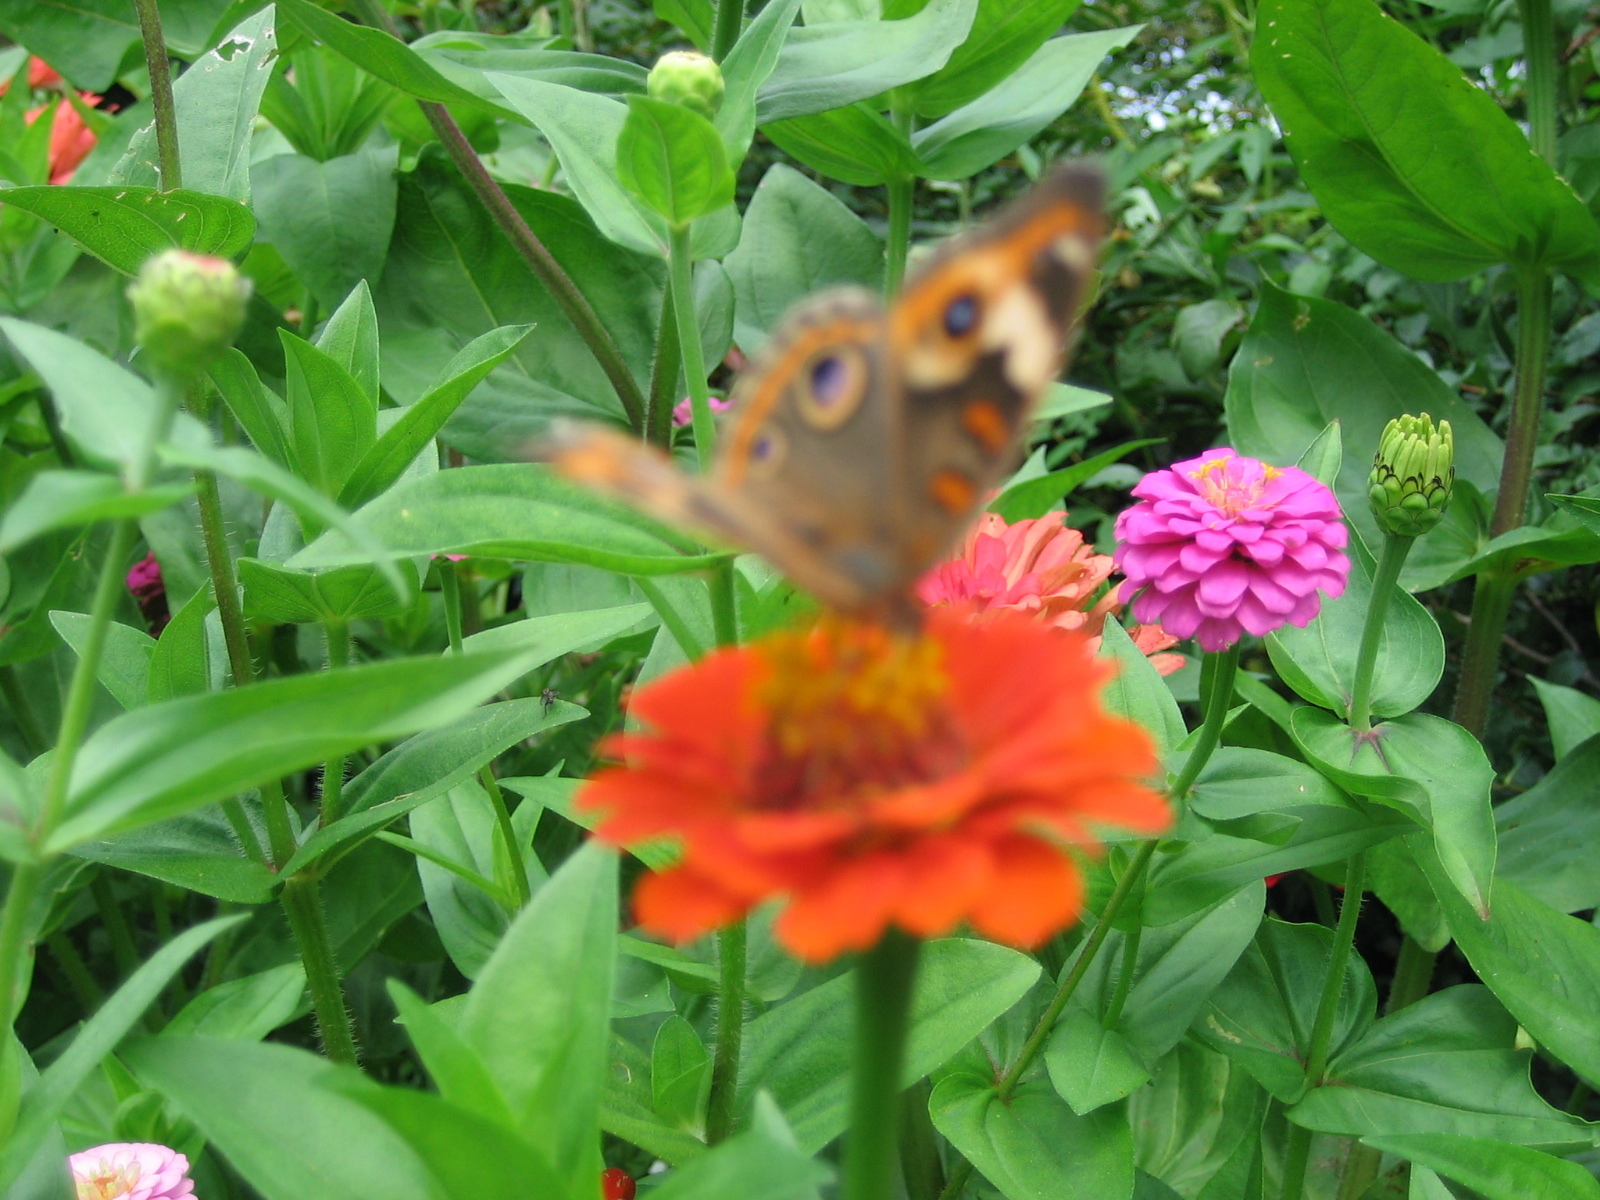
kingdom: Animalia
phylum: Arthropoda
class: Insecta
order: Lepidoptera
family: Nymphalidae
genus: Junonia
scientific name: Junonia coenia
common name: Common buckeye
